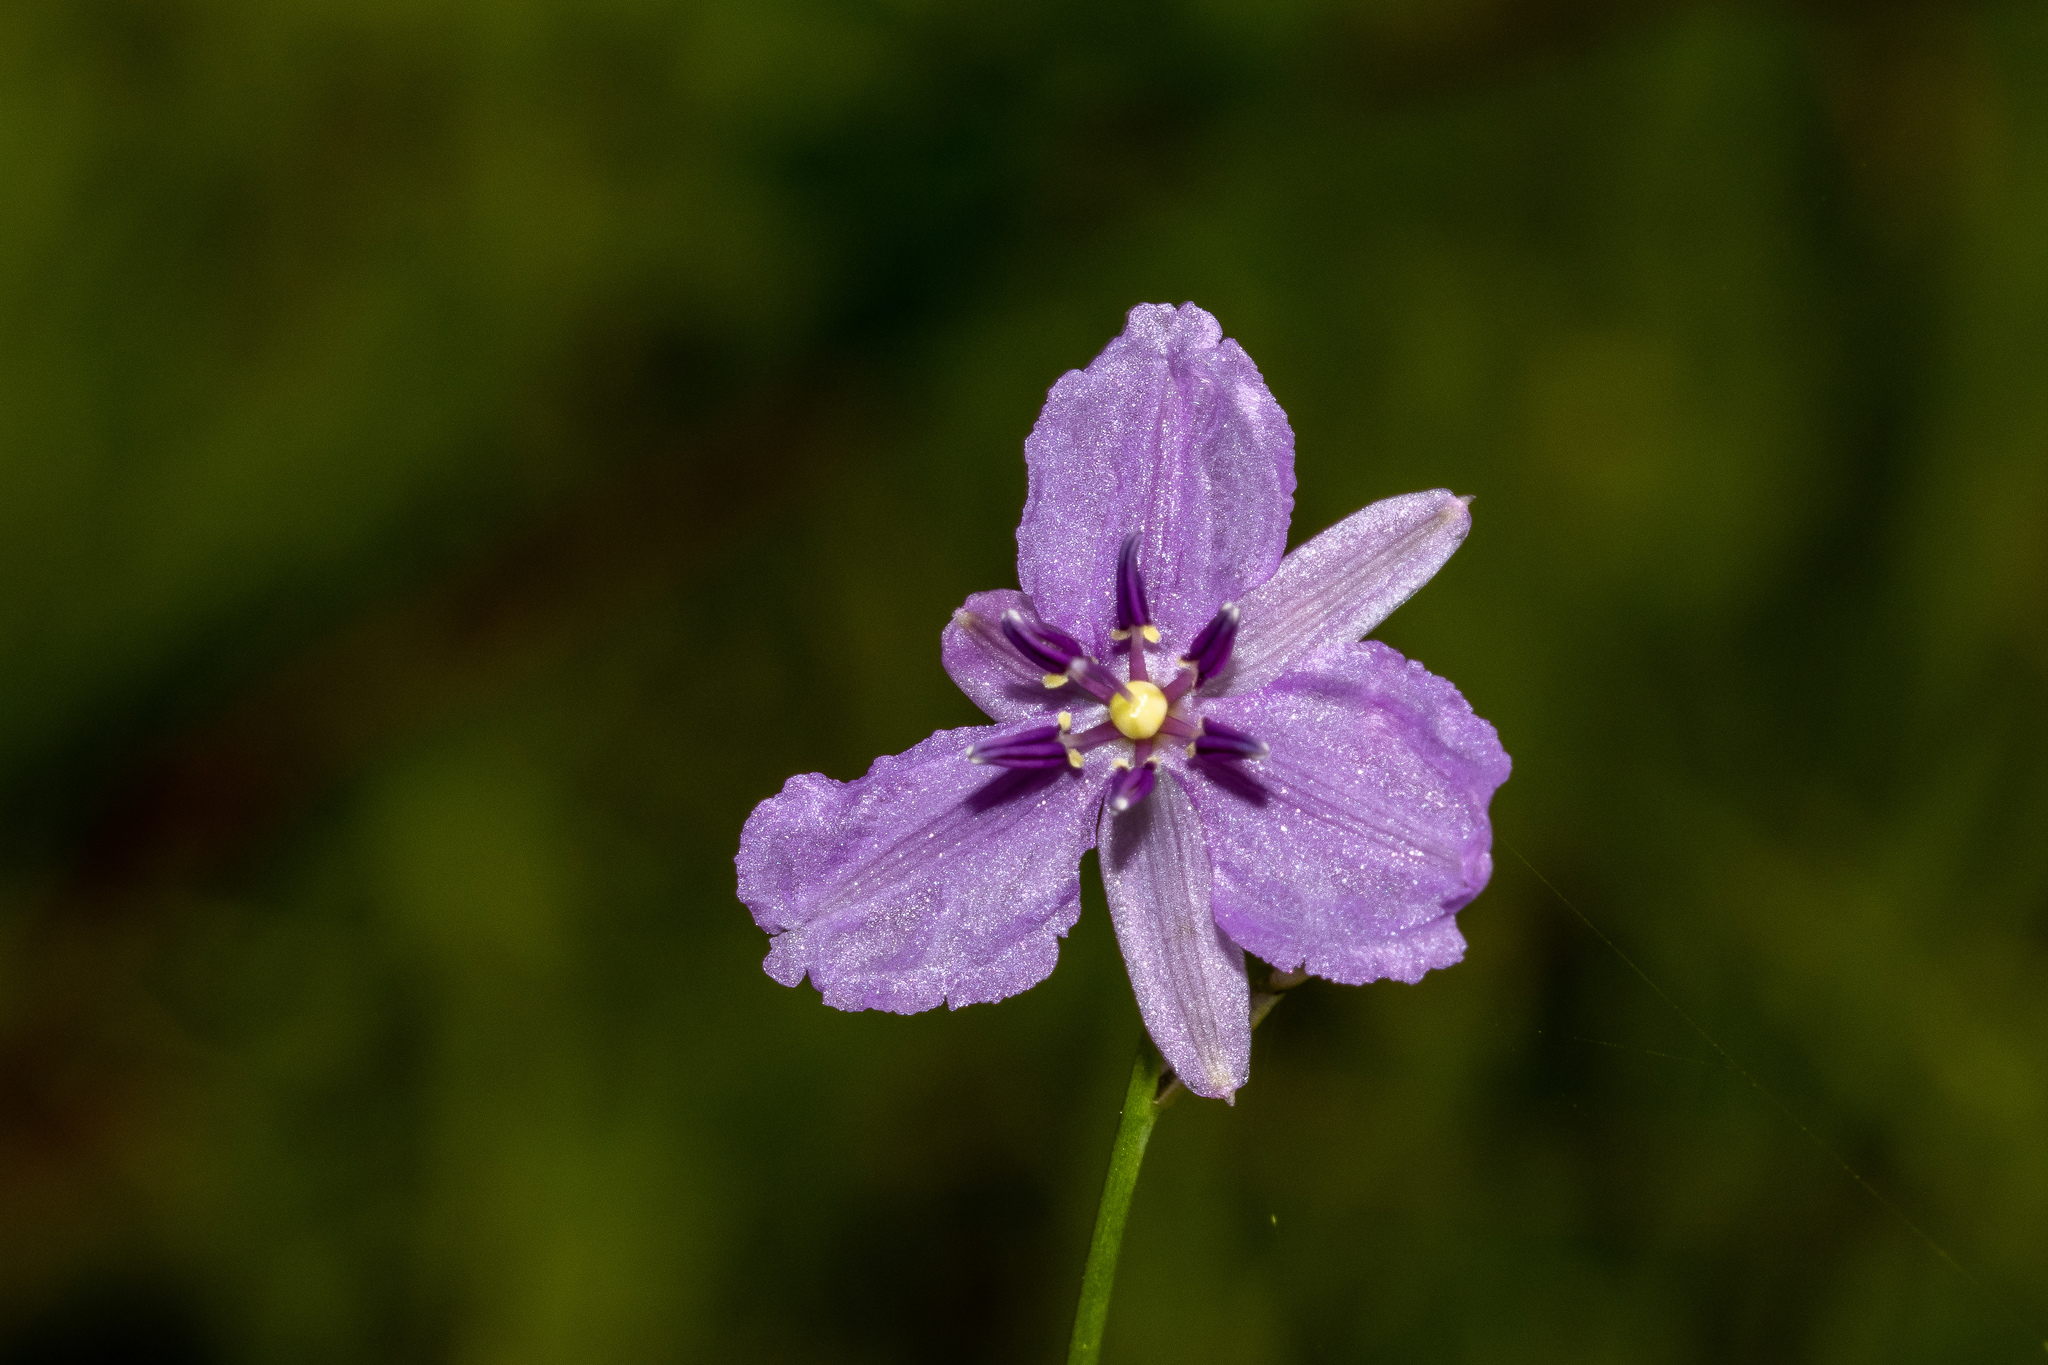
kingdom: Plantae
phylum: Tracheophyta
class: Liliopsida
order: Asparagales
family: Asparagaceae
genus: Arthropodium
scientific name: Arthropodium strictum
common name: Chocolate-lily
